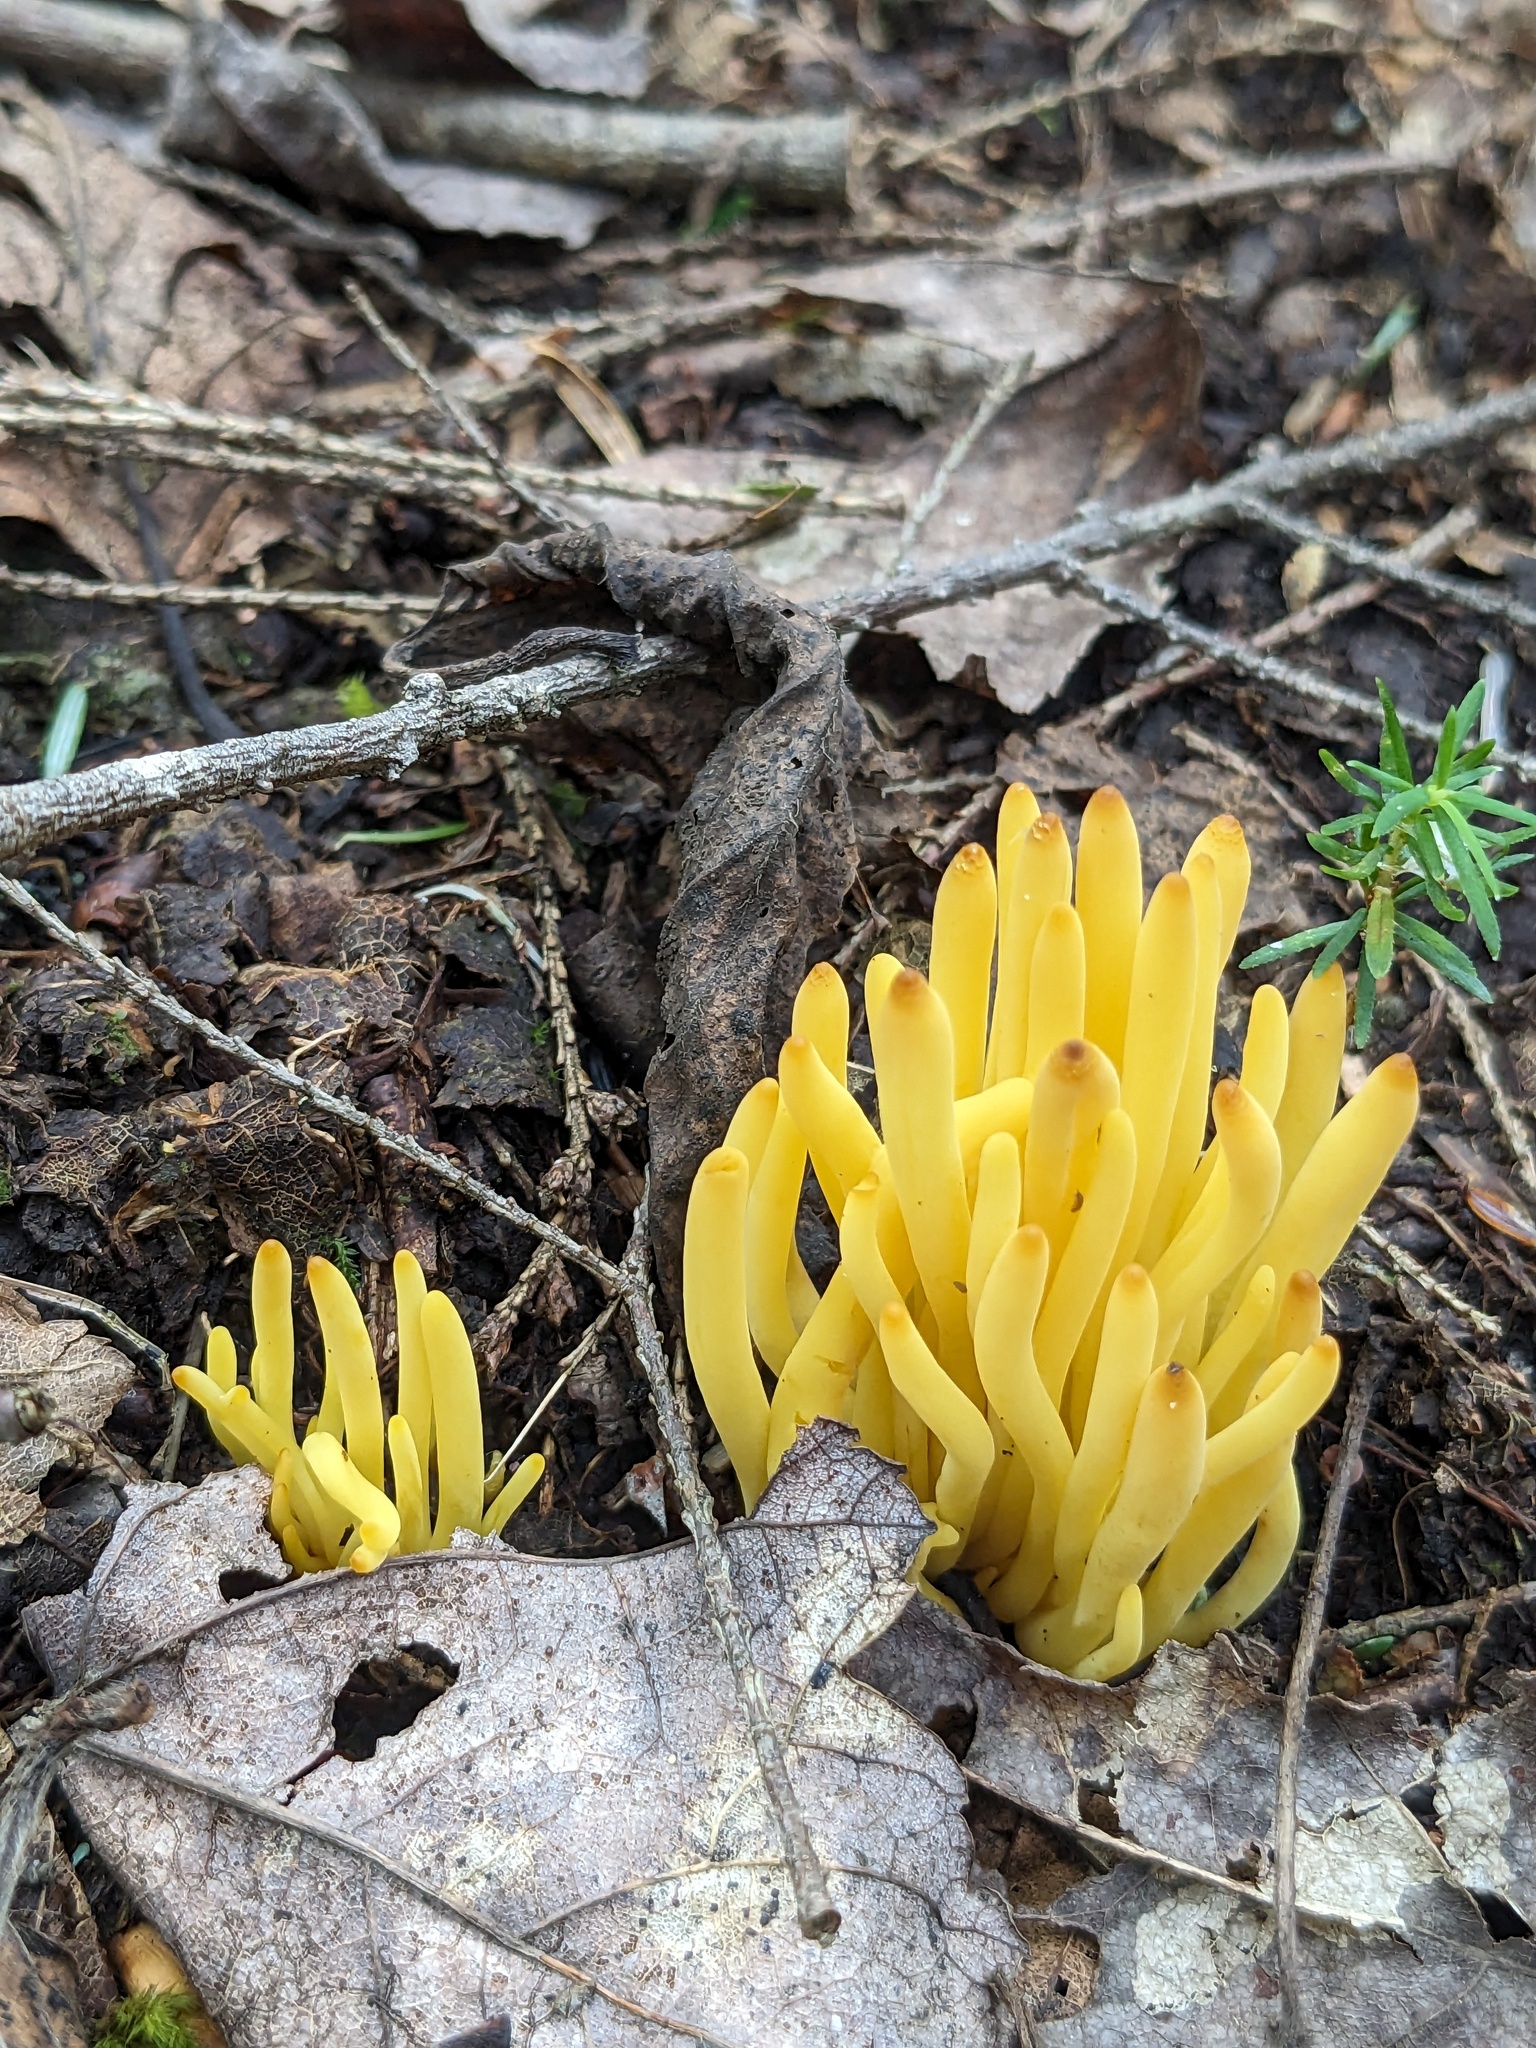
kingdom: Fungi
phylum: Basidiomycota
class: Agaricomycetes
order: Agaricales
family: Clavariaceae
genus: Clavulinopsis
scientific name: Clavulinopsis fusiformis
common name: Golden spindles
